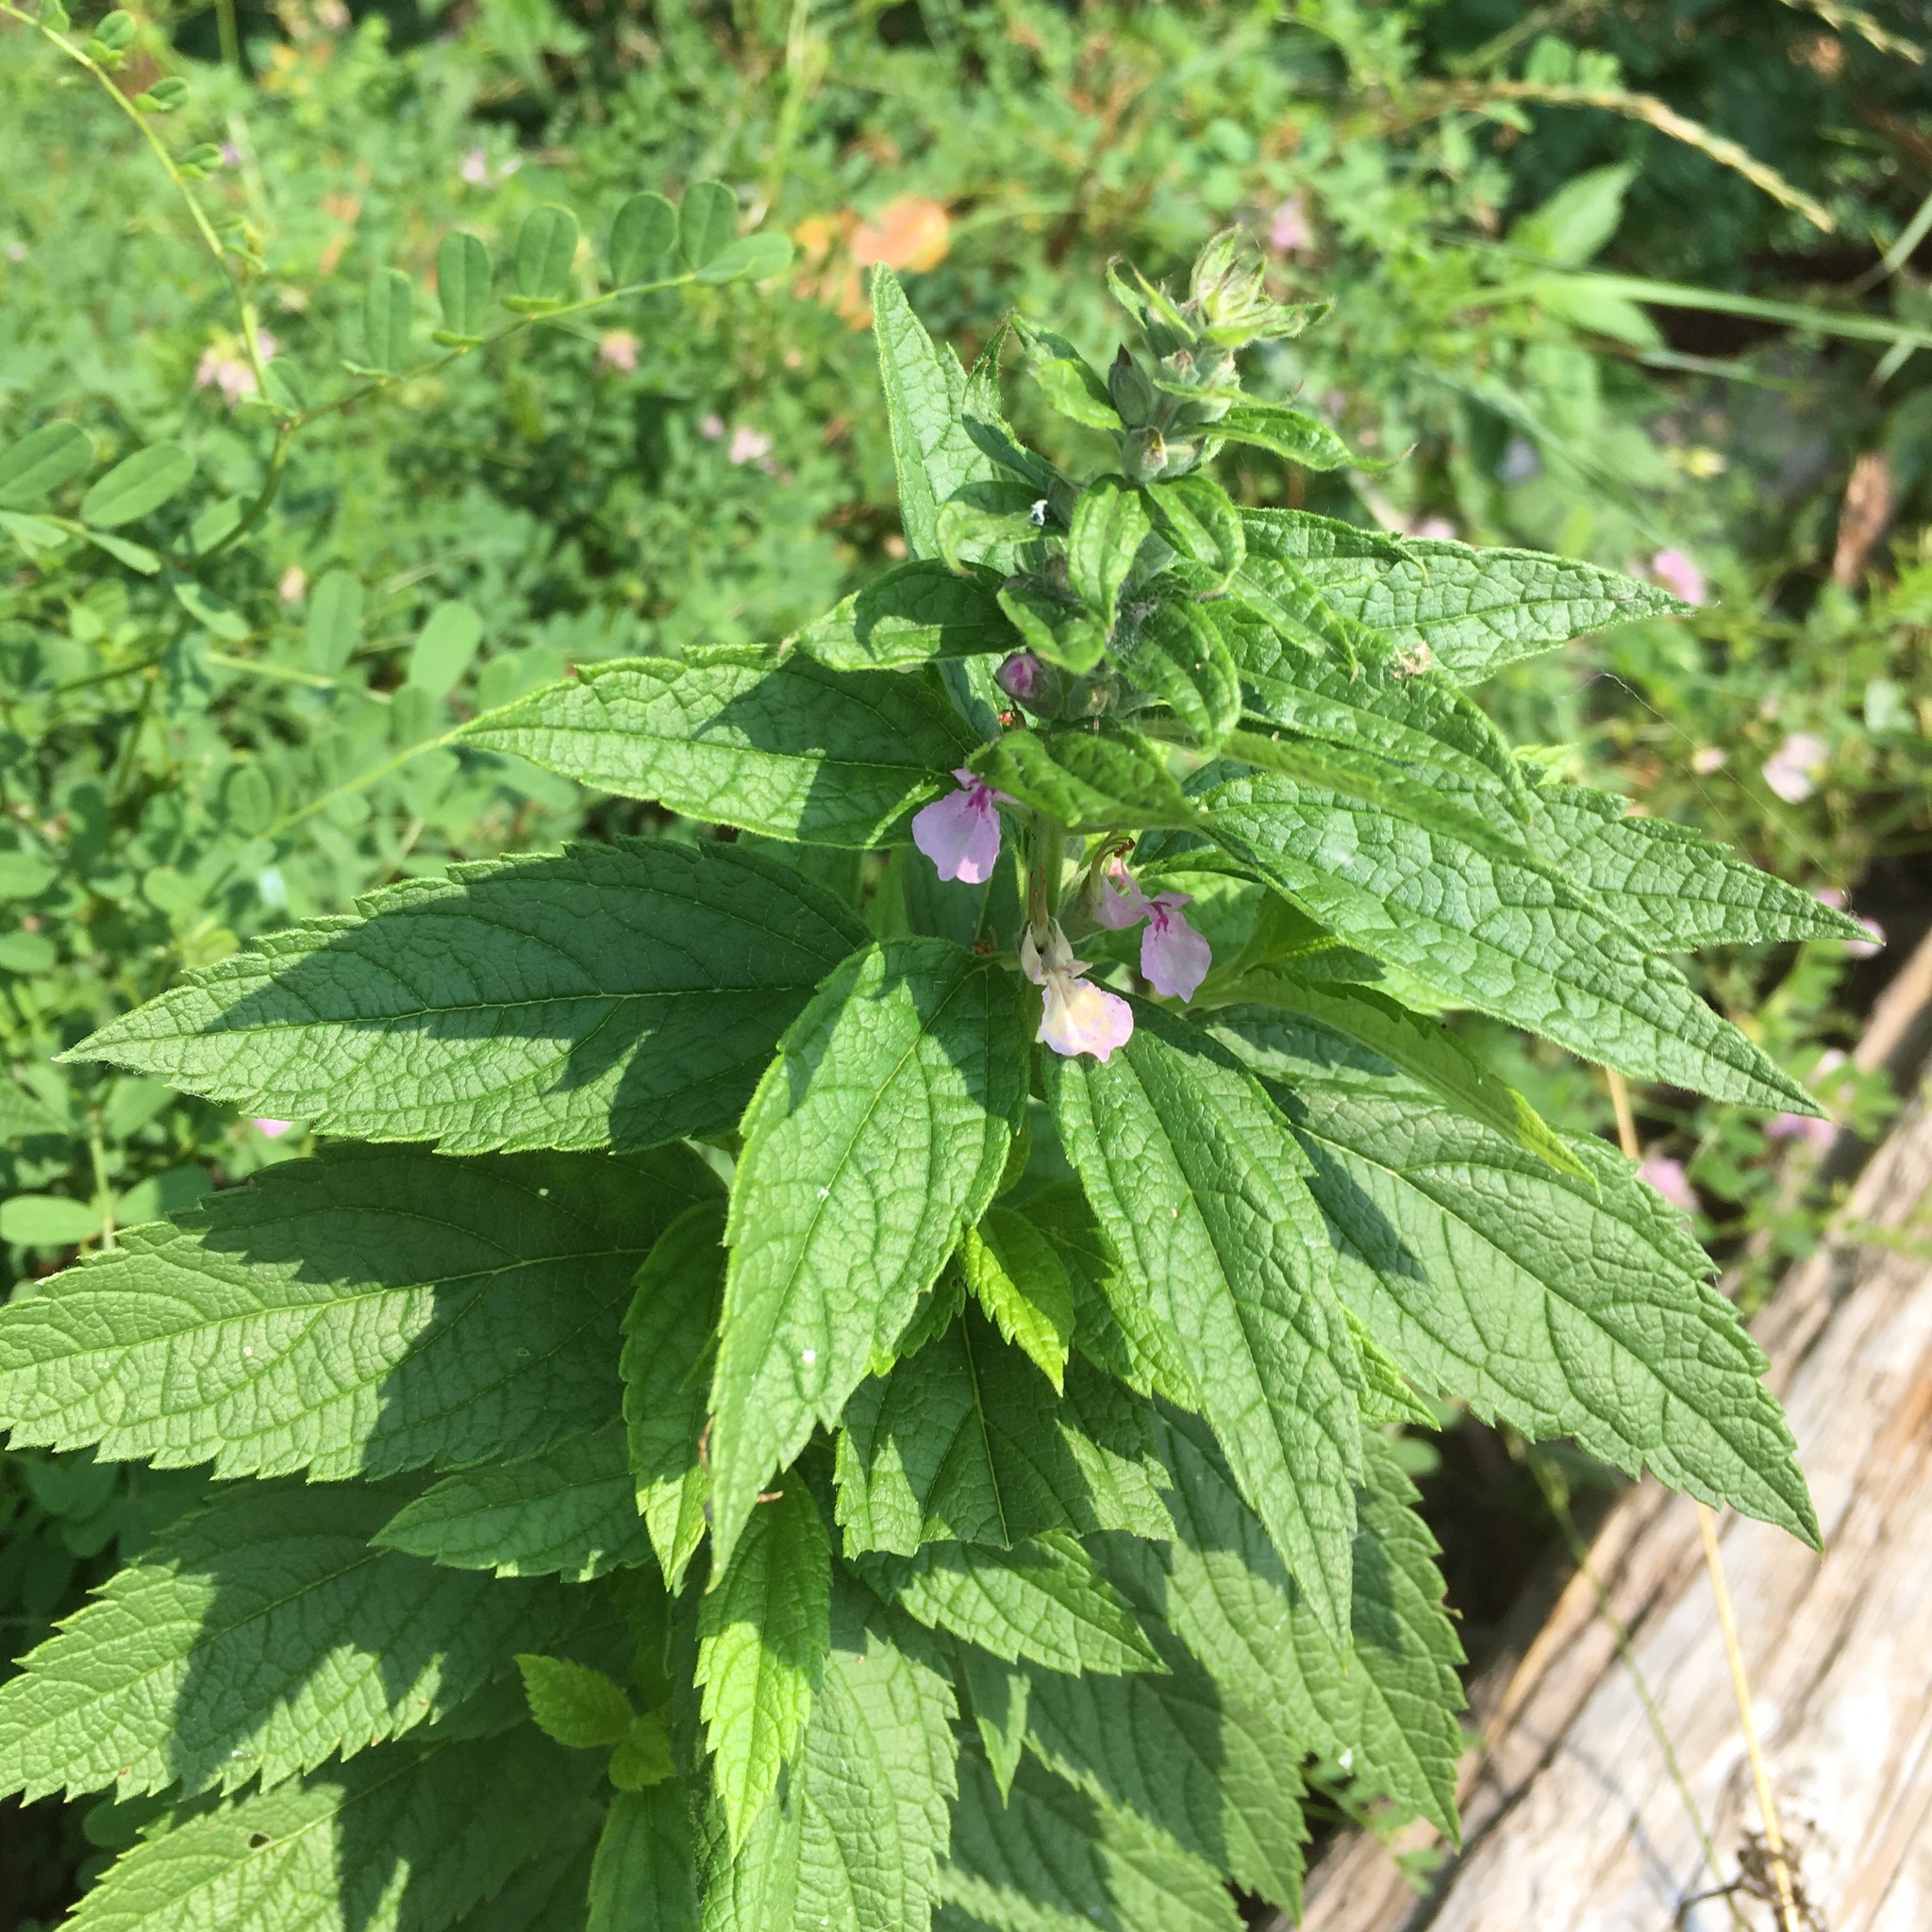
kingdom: Plantae
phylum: Tracheophyta
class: Magnoliopsida
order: Lamiales
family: Lamiaceae
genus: Teucrium
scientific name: Teucrium canadense
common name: American germander
